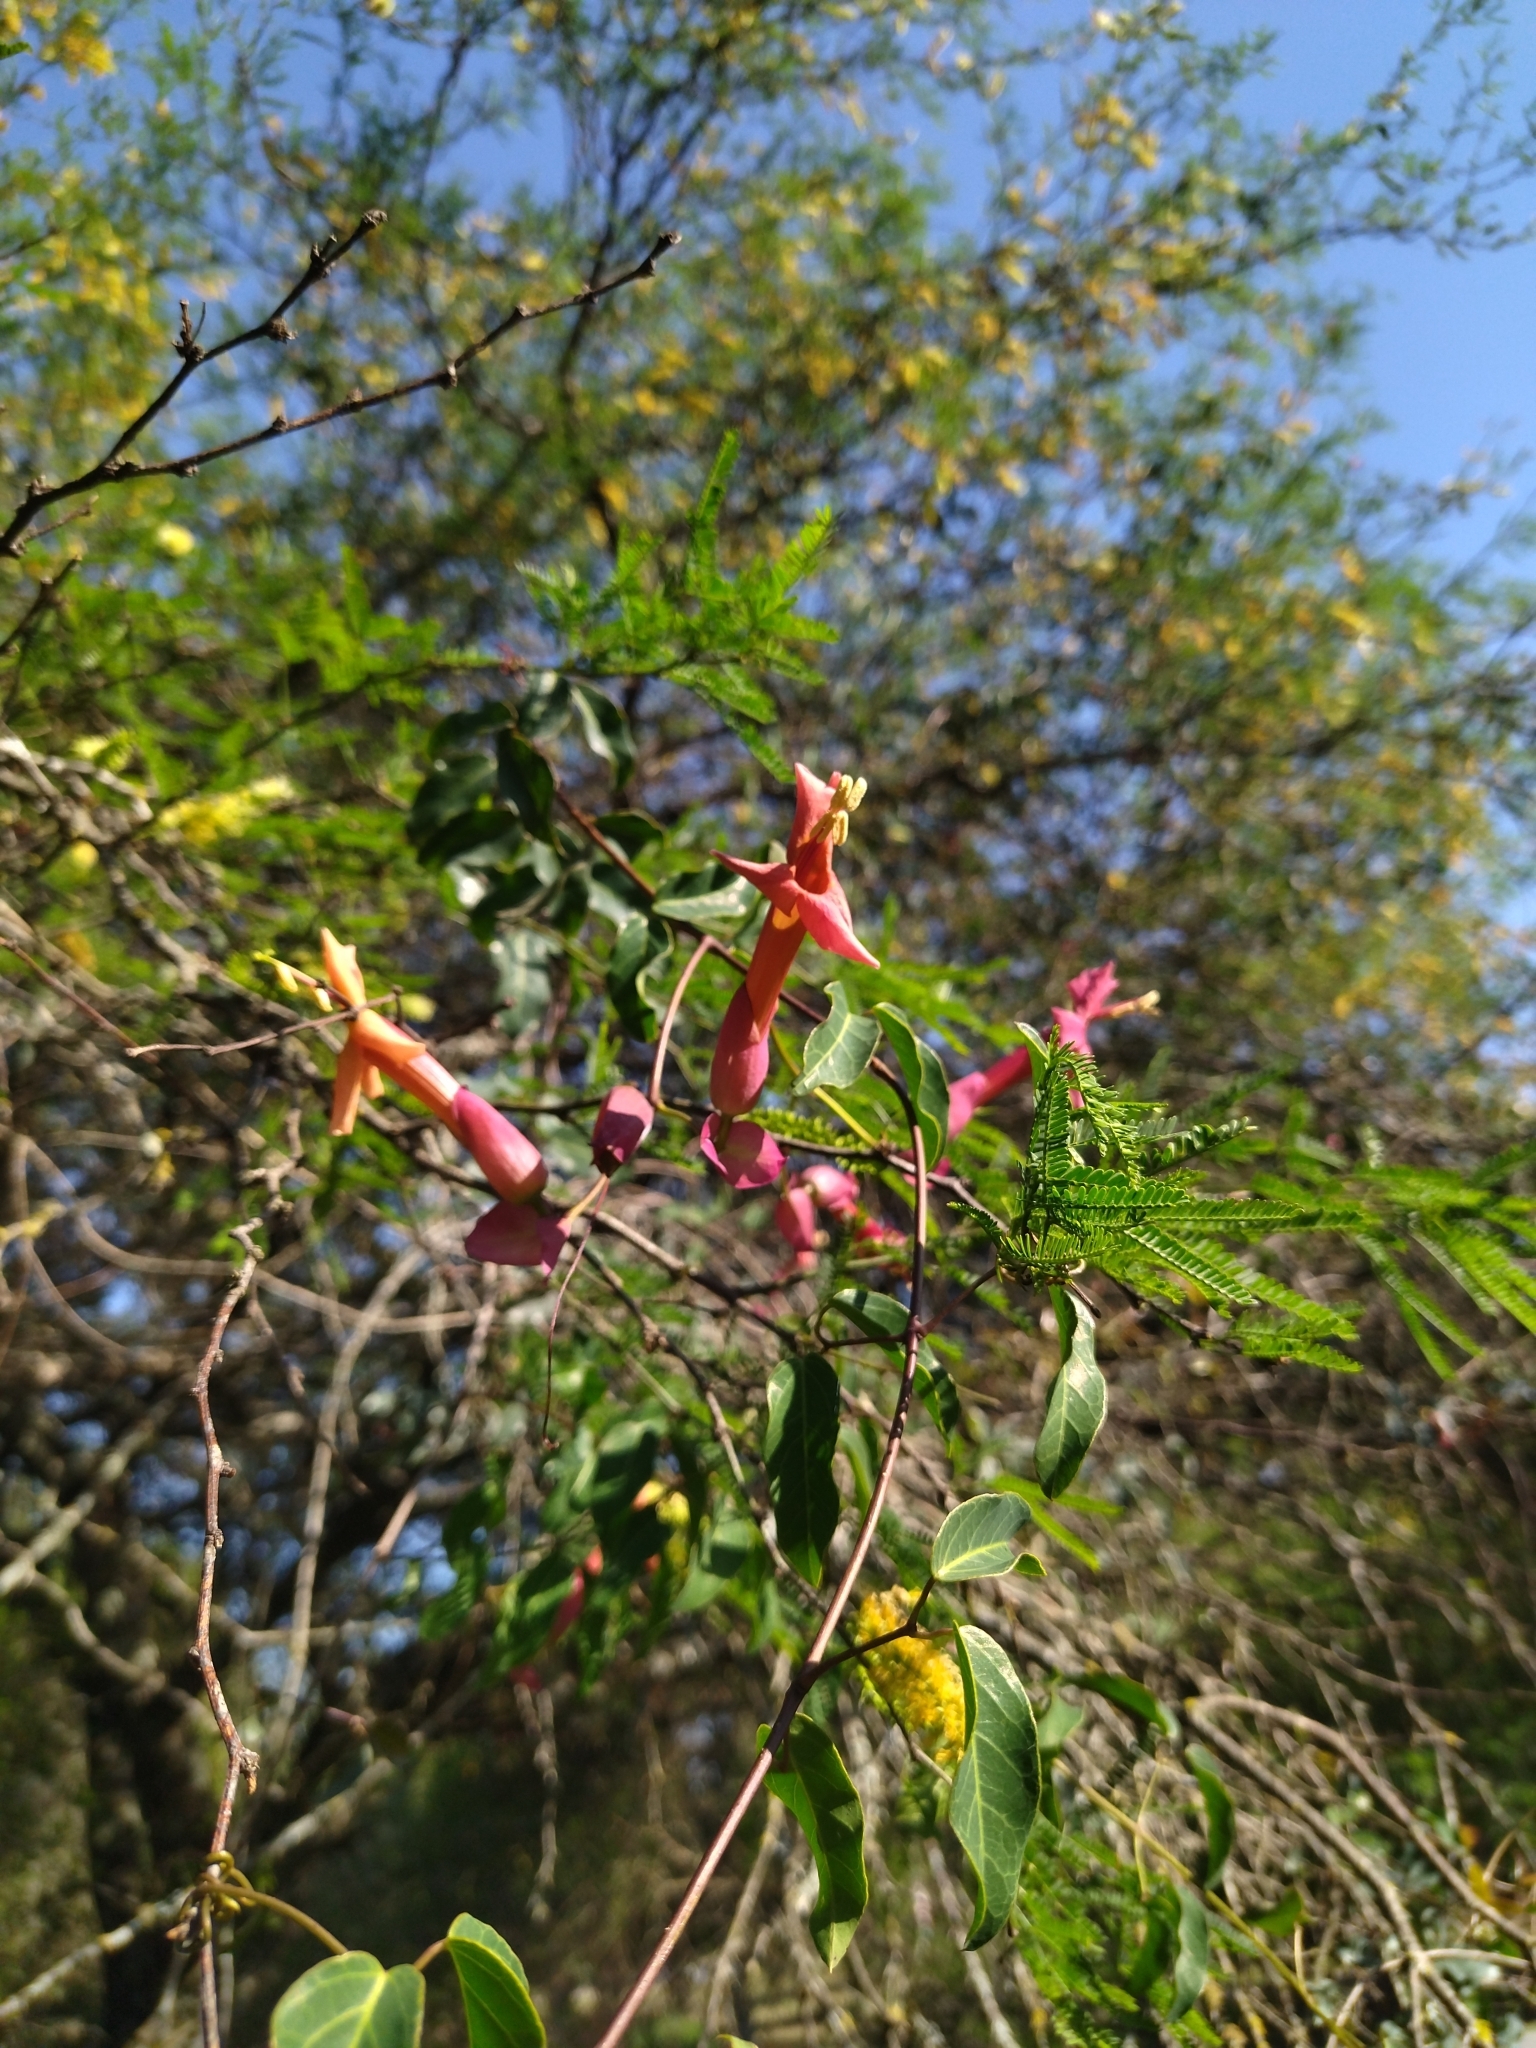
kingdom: Plantae
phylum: Tracheophyta
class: Magnoliopsida
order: Lamiales
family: Bignoniaceae
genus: Dolichandra
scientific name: Dolichandra cynanchoides
